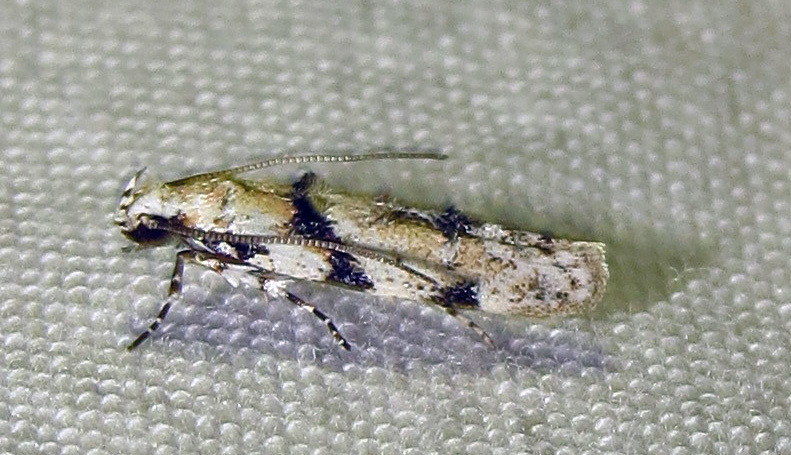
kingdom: Animalia
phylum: Arthropoda
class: Insecta
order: Lepidoptera
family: Gelechiidae
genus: Arogalea
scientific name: Arogalea cristifasciella
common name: White stripe-backed moth
